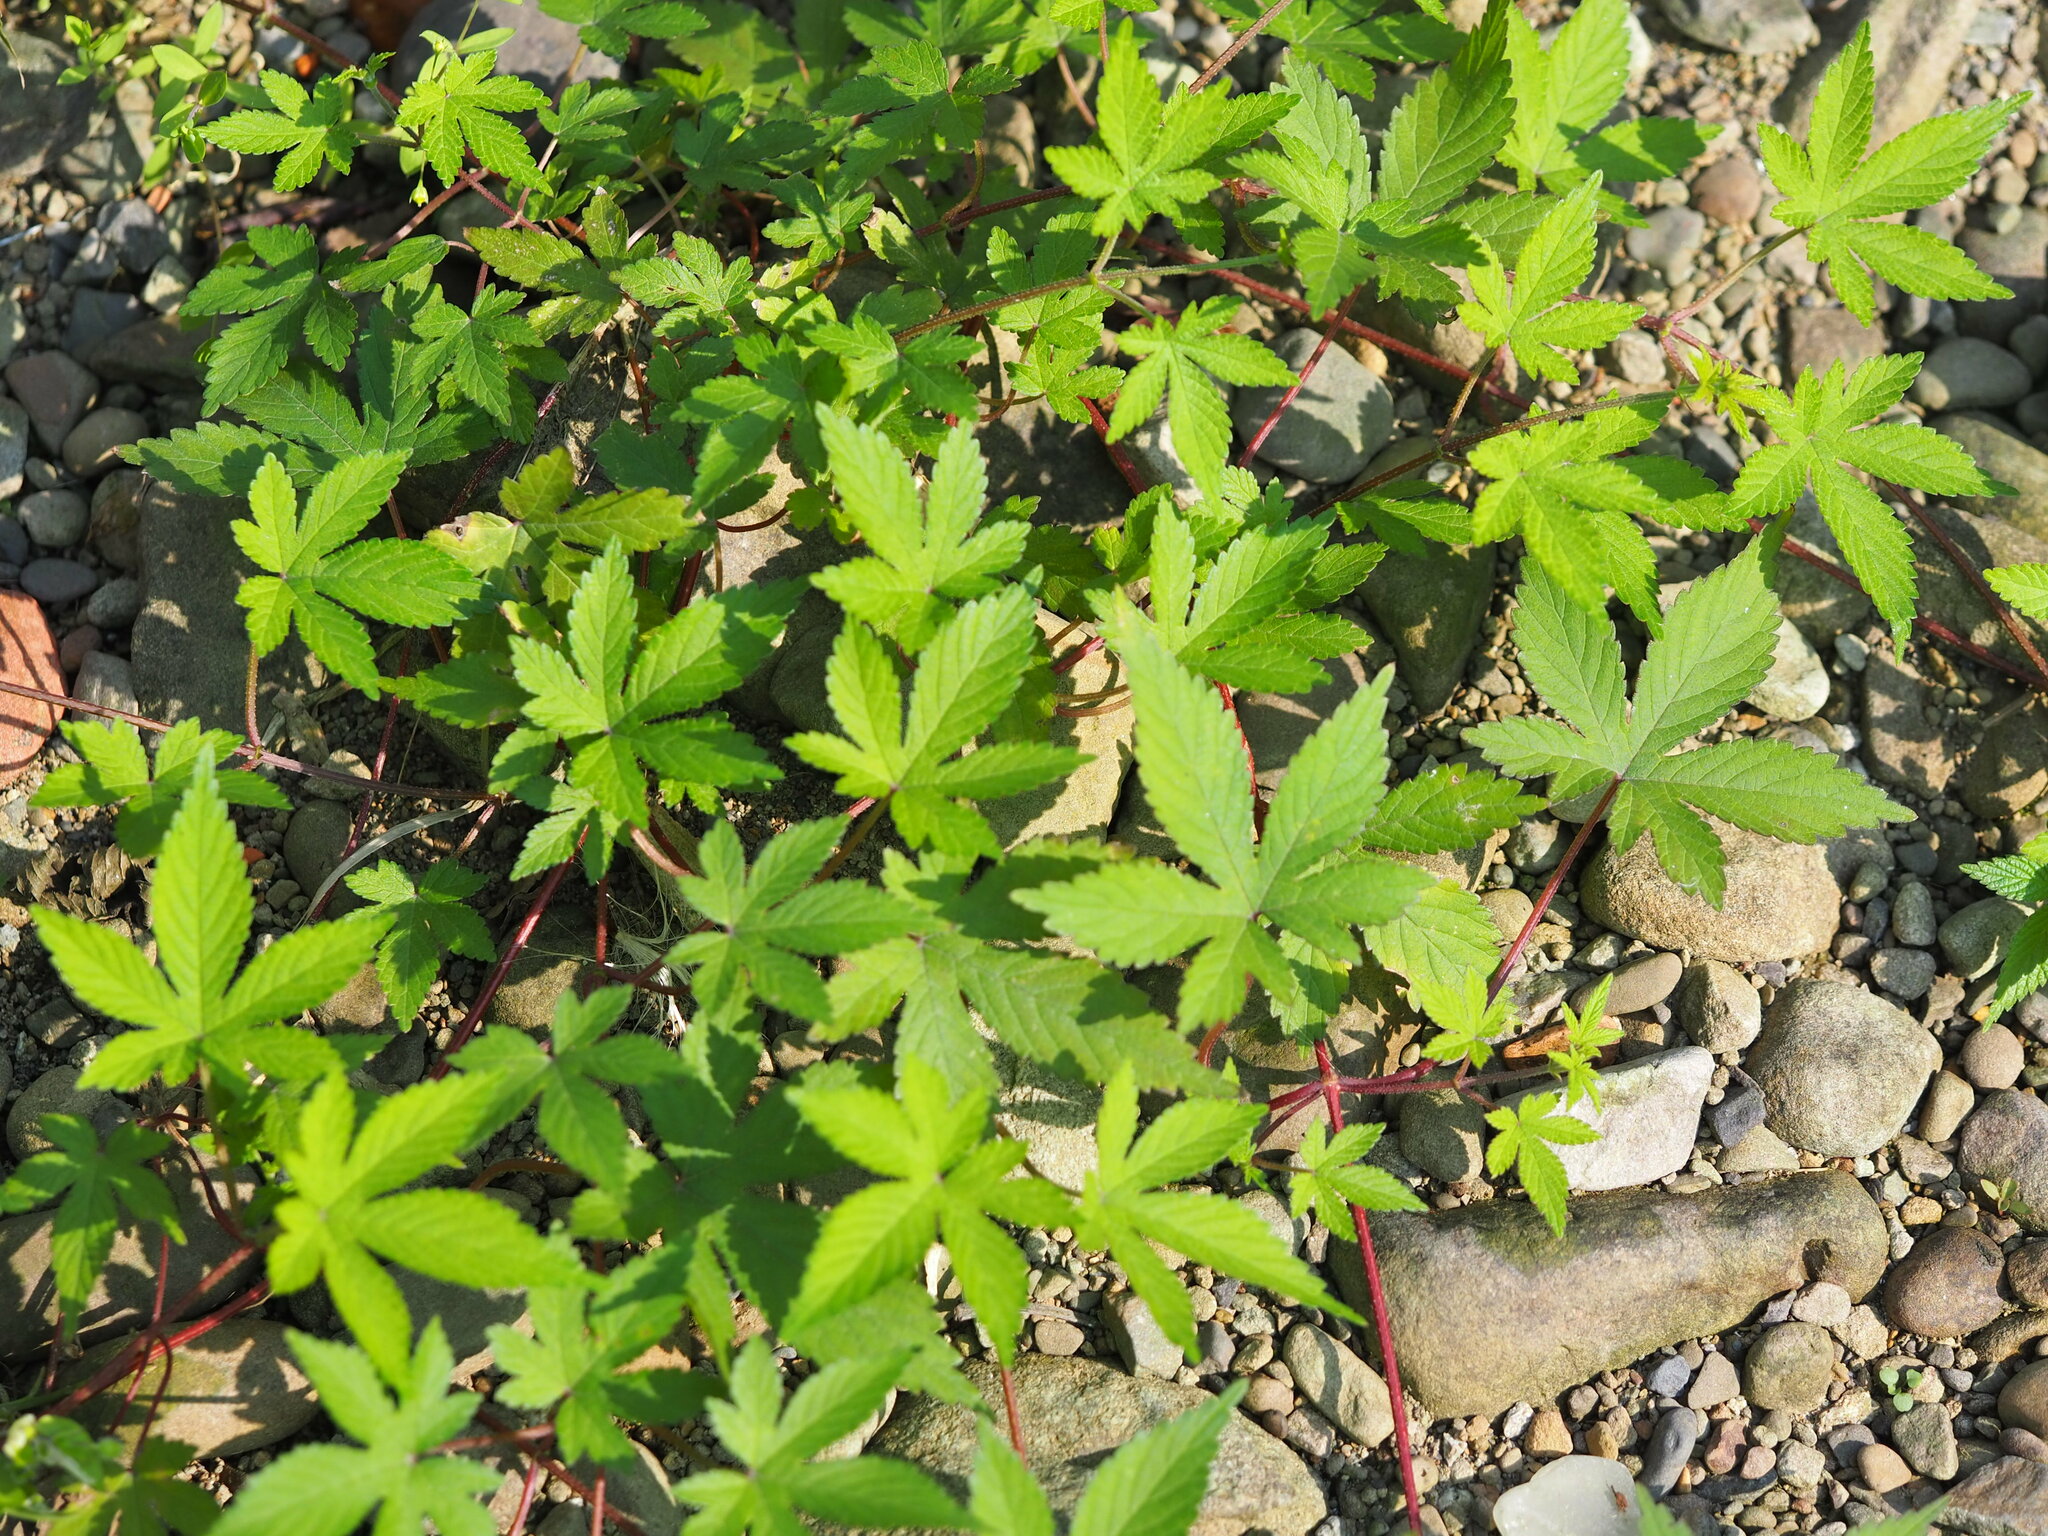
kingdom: Plantae
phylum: Tracheophyta
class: Magnoliopsida
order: Rosales
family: Cannabaceae
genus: Humulus
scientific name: Humulus scandens
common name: Japanese hop
